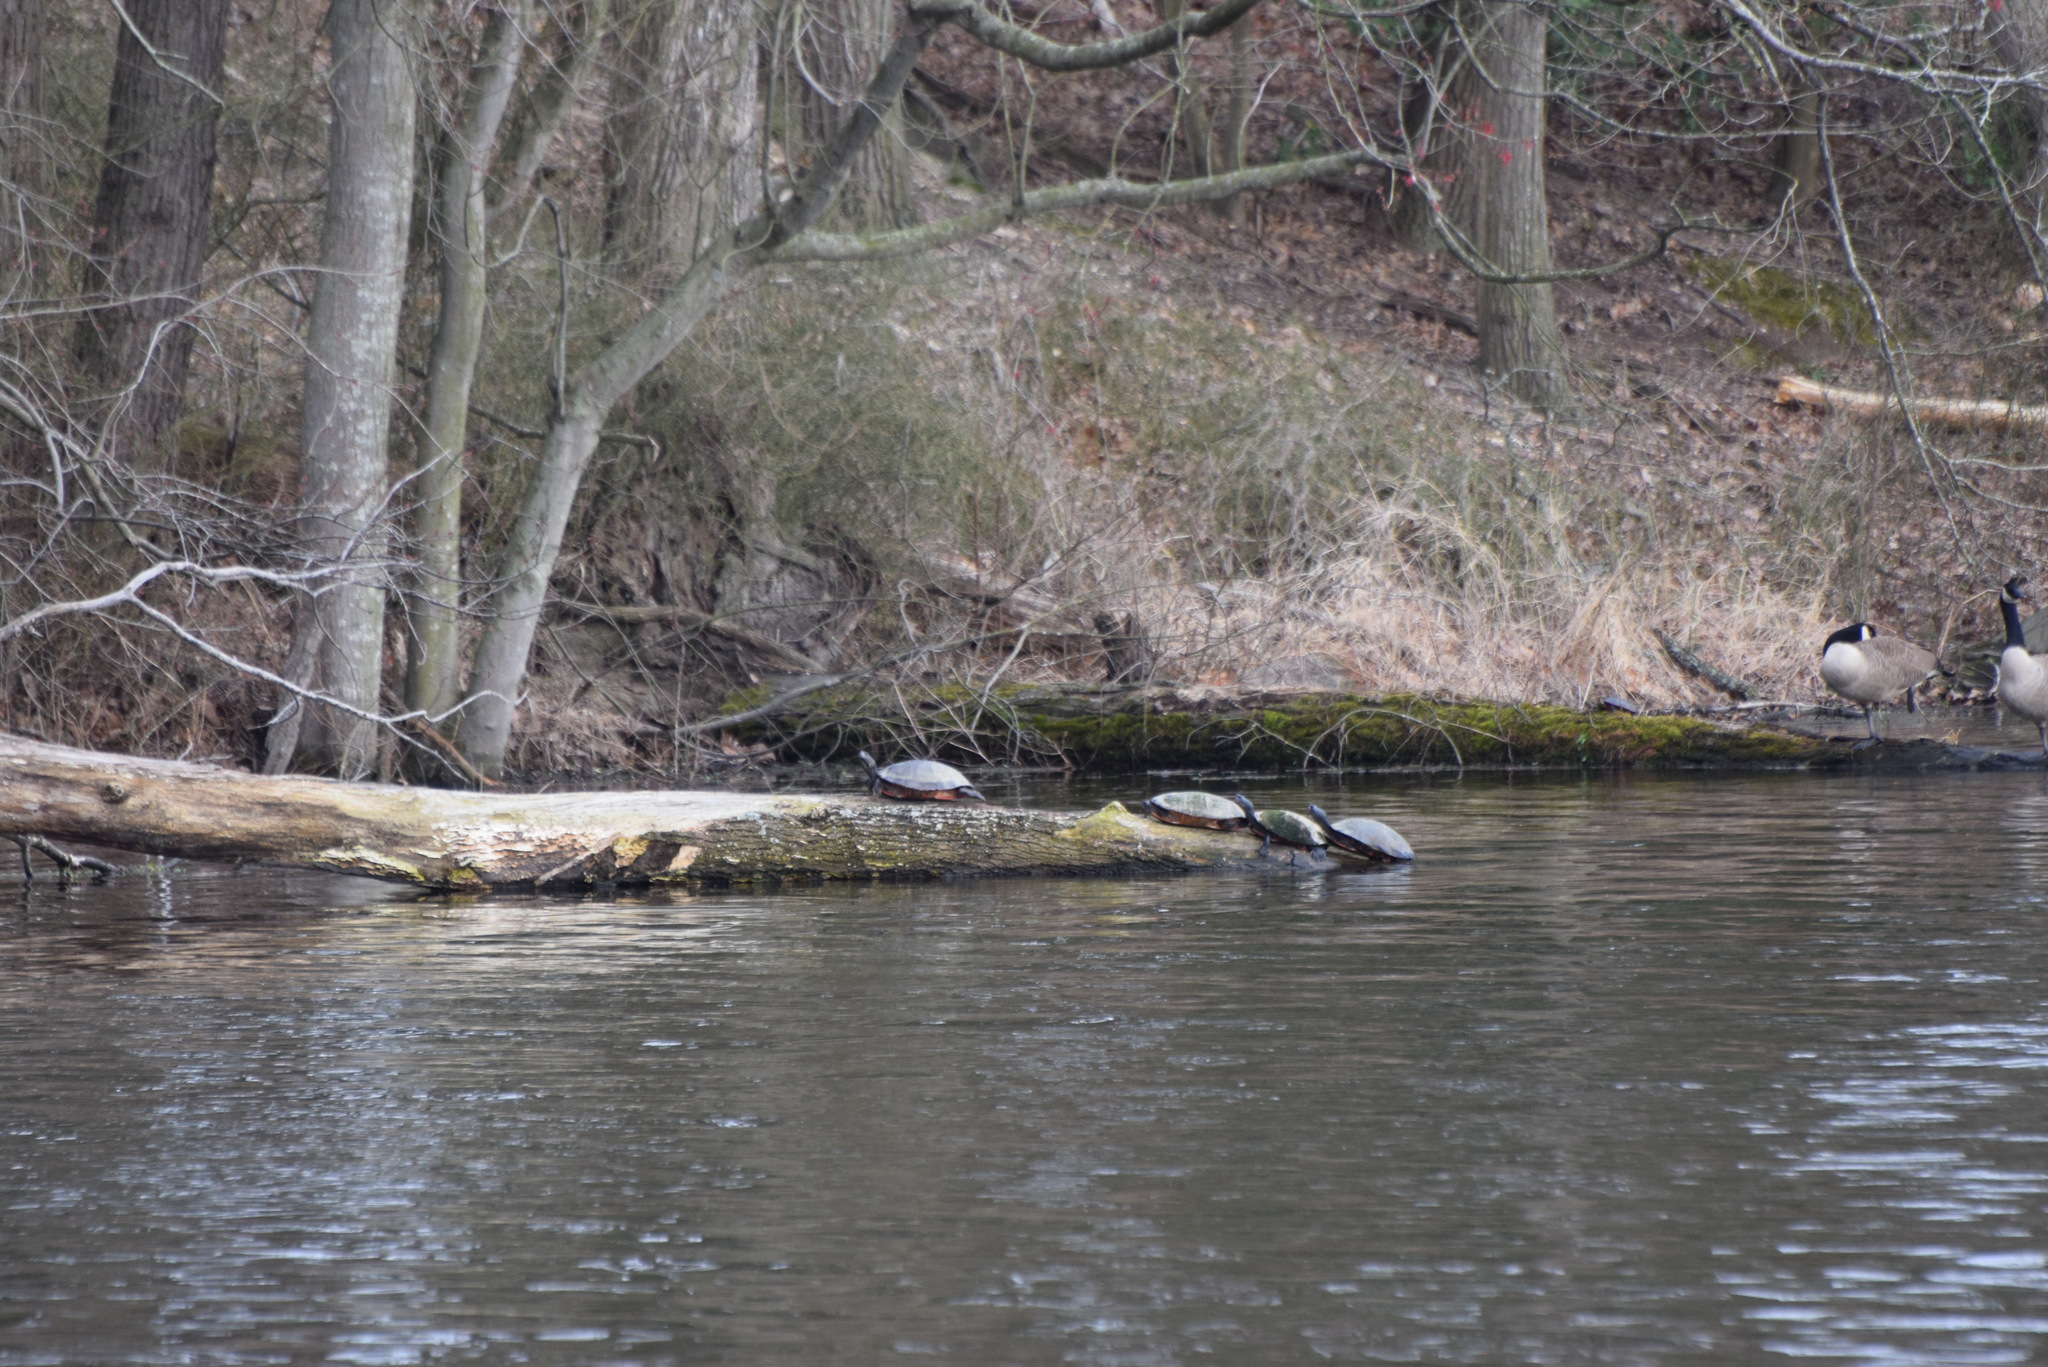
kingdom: Animalia
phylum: Chordata
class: Testudines
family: Emydidae
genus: Pseudemys
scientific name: Pseudemys rubriventris
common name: American red-bellied turtle
